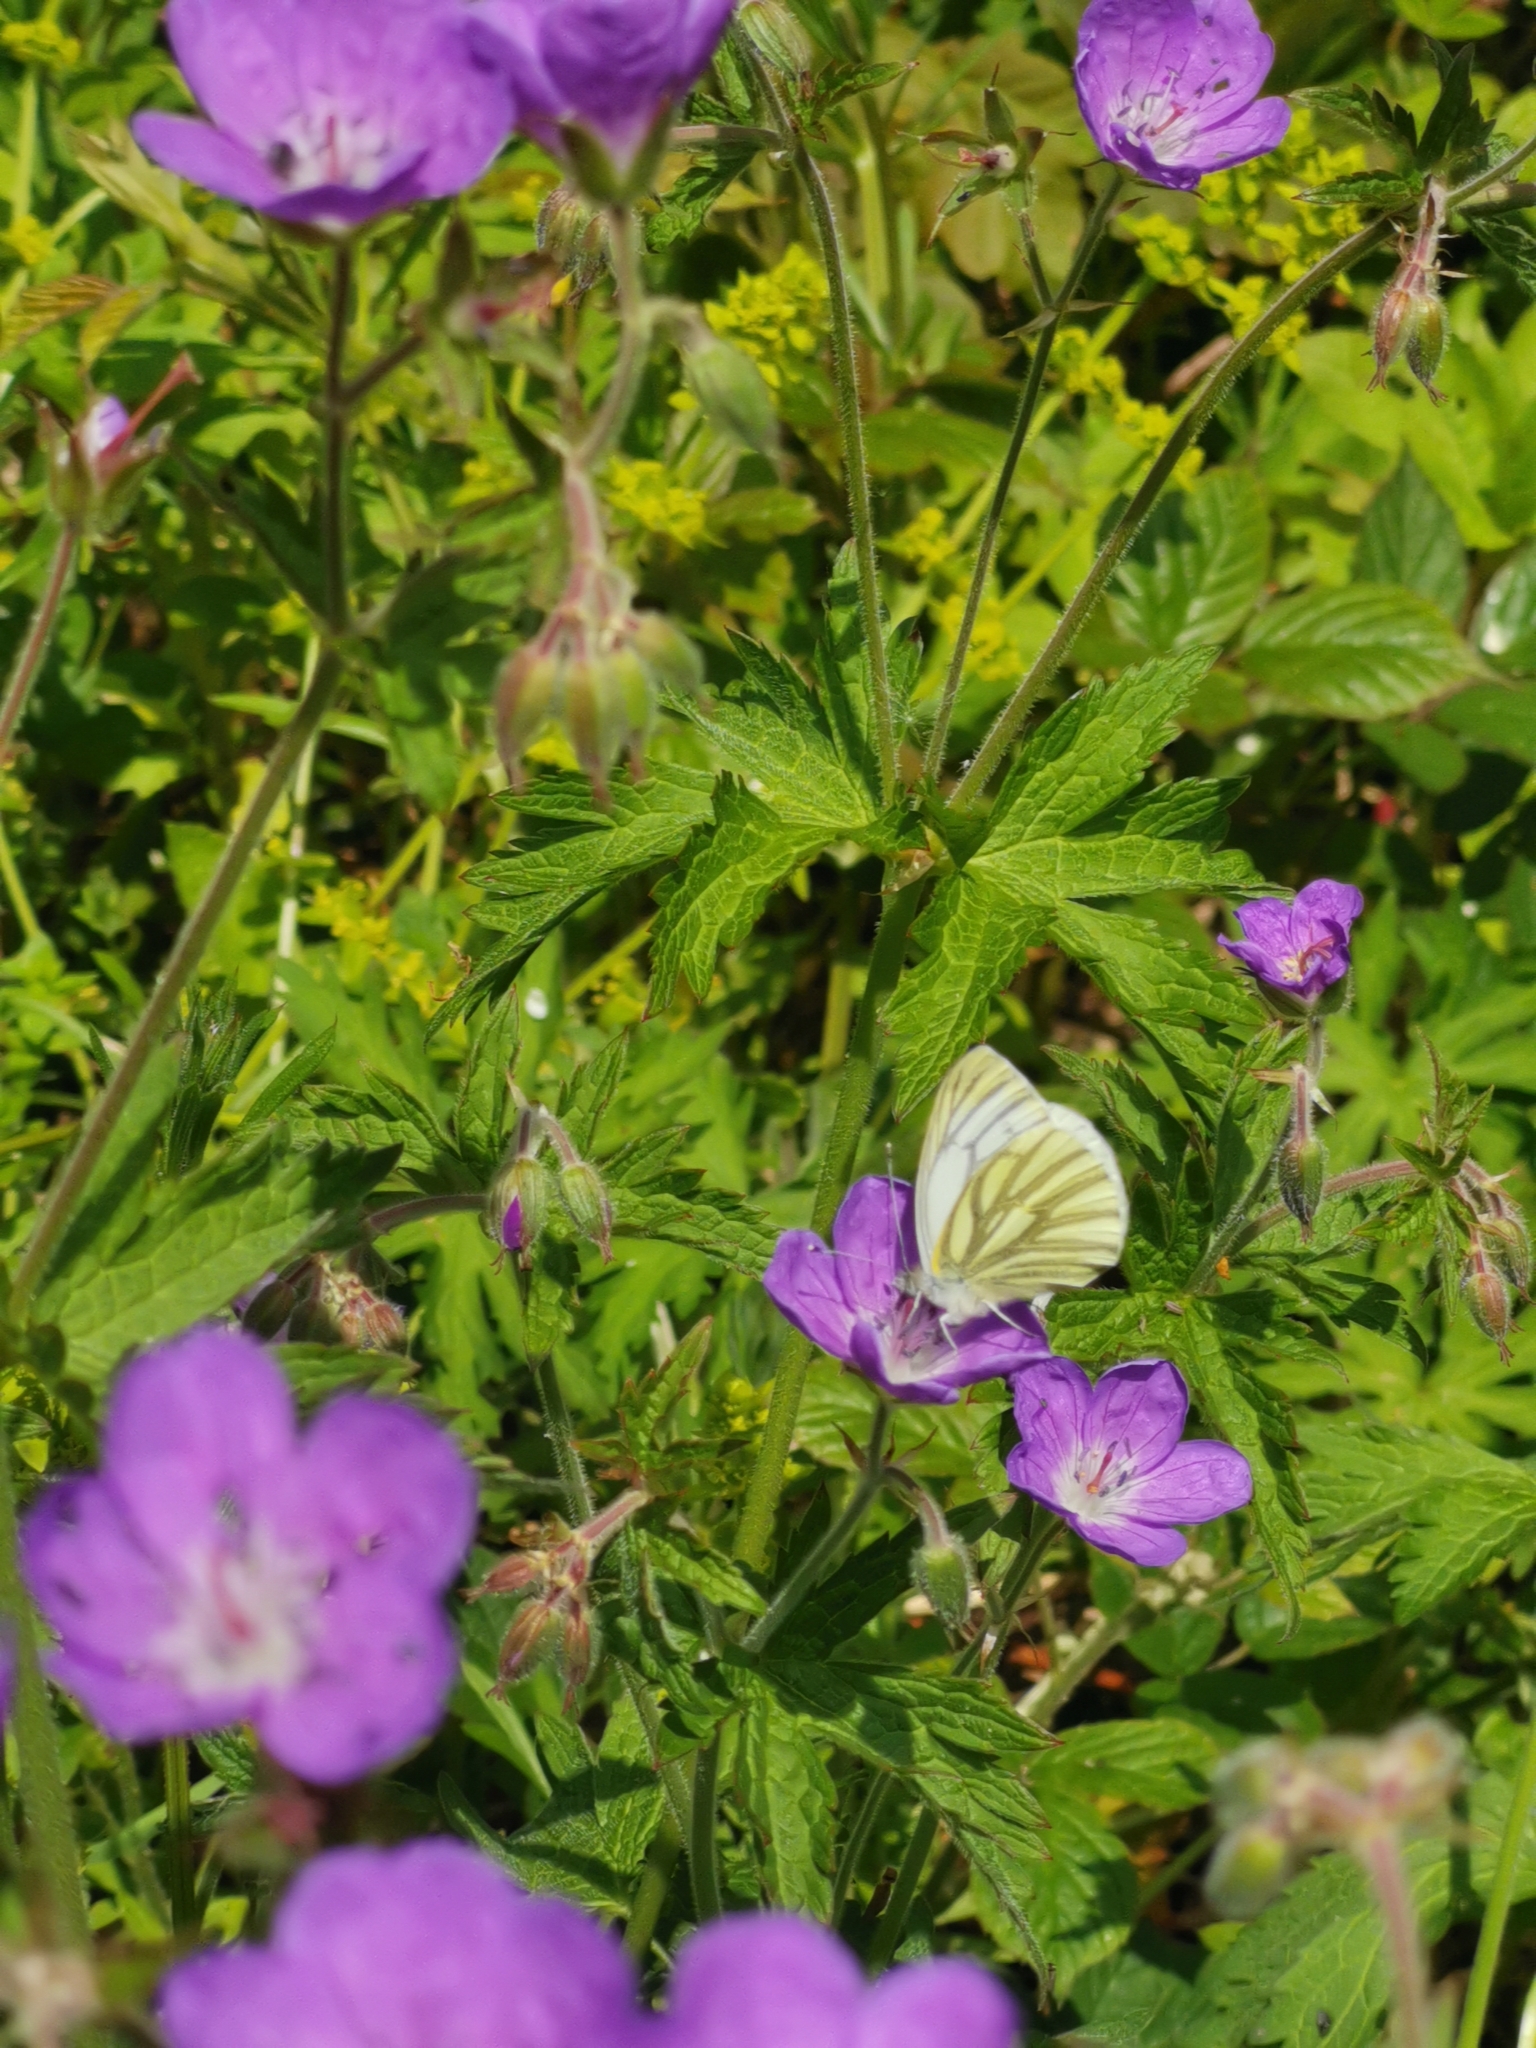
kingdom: Animalia
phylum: Arthropoda
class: Insecta
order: Lepidoptera
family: Pieridae
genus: Pieris
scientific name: Pieris napi
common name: Green-veined white
